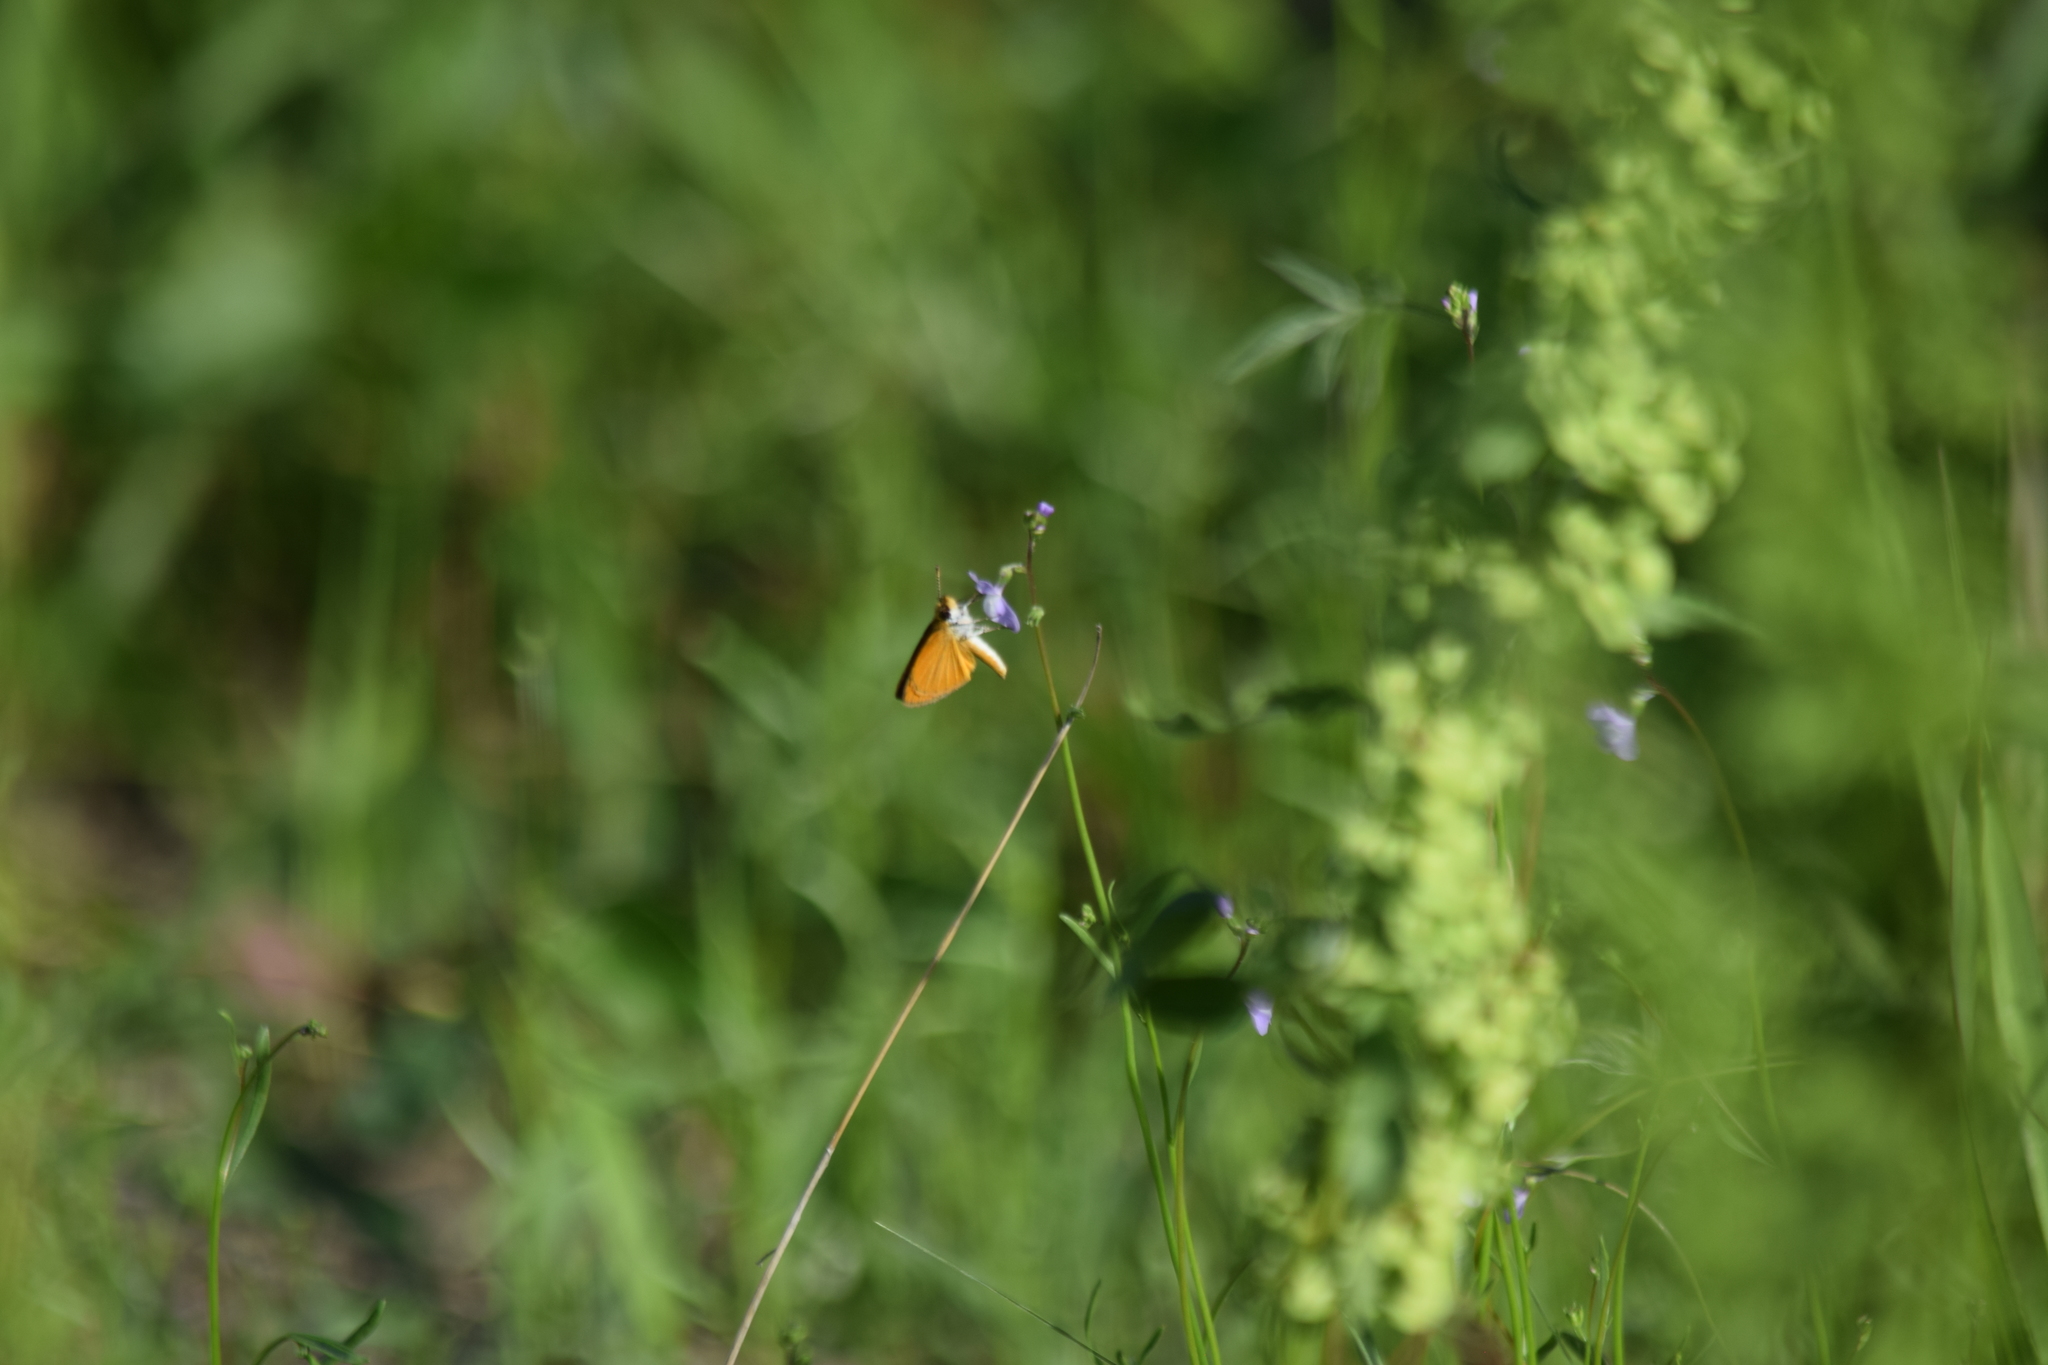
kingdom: Animalia
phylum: Arthropoda
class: Insecta
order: Lepidoptera
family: Hesperiidae
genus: Ancyloxypha
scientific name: Ancyloxypha numitor
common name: Least skipper
